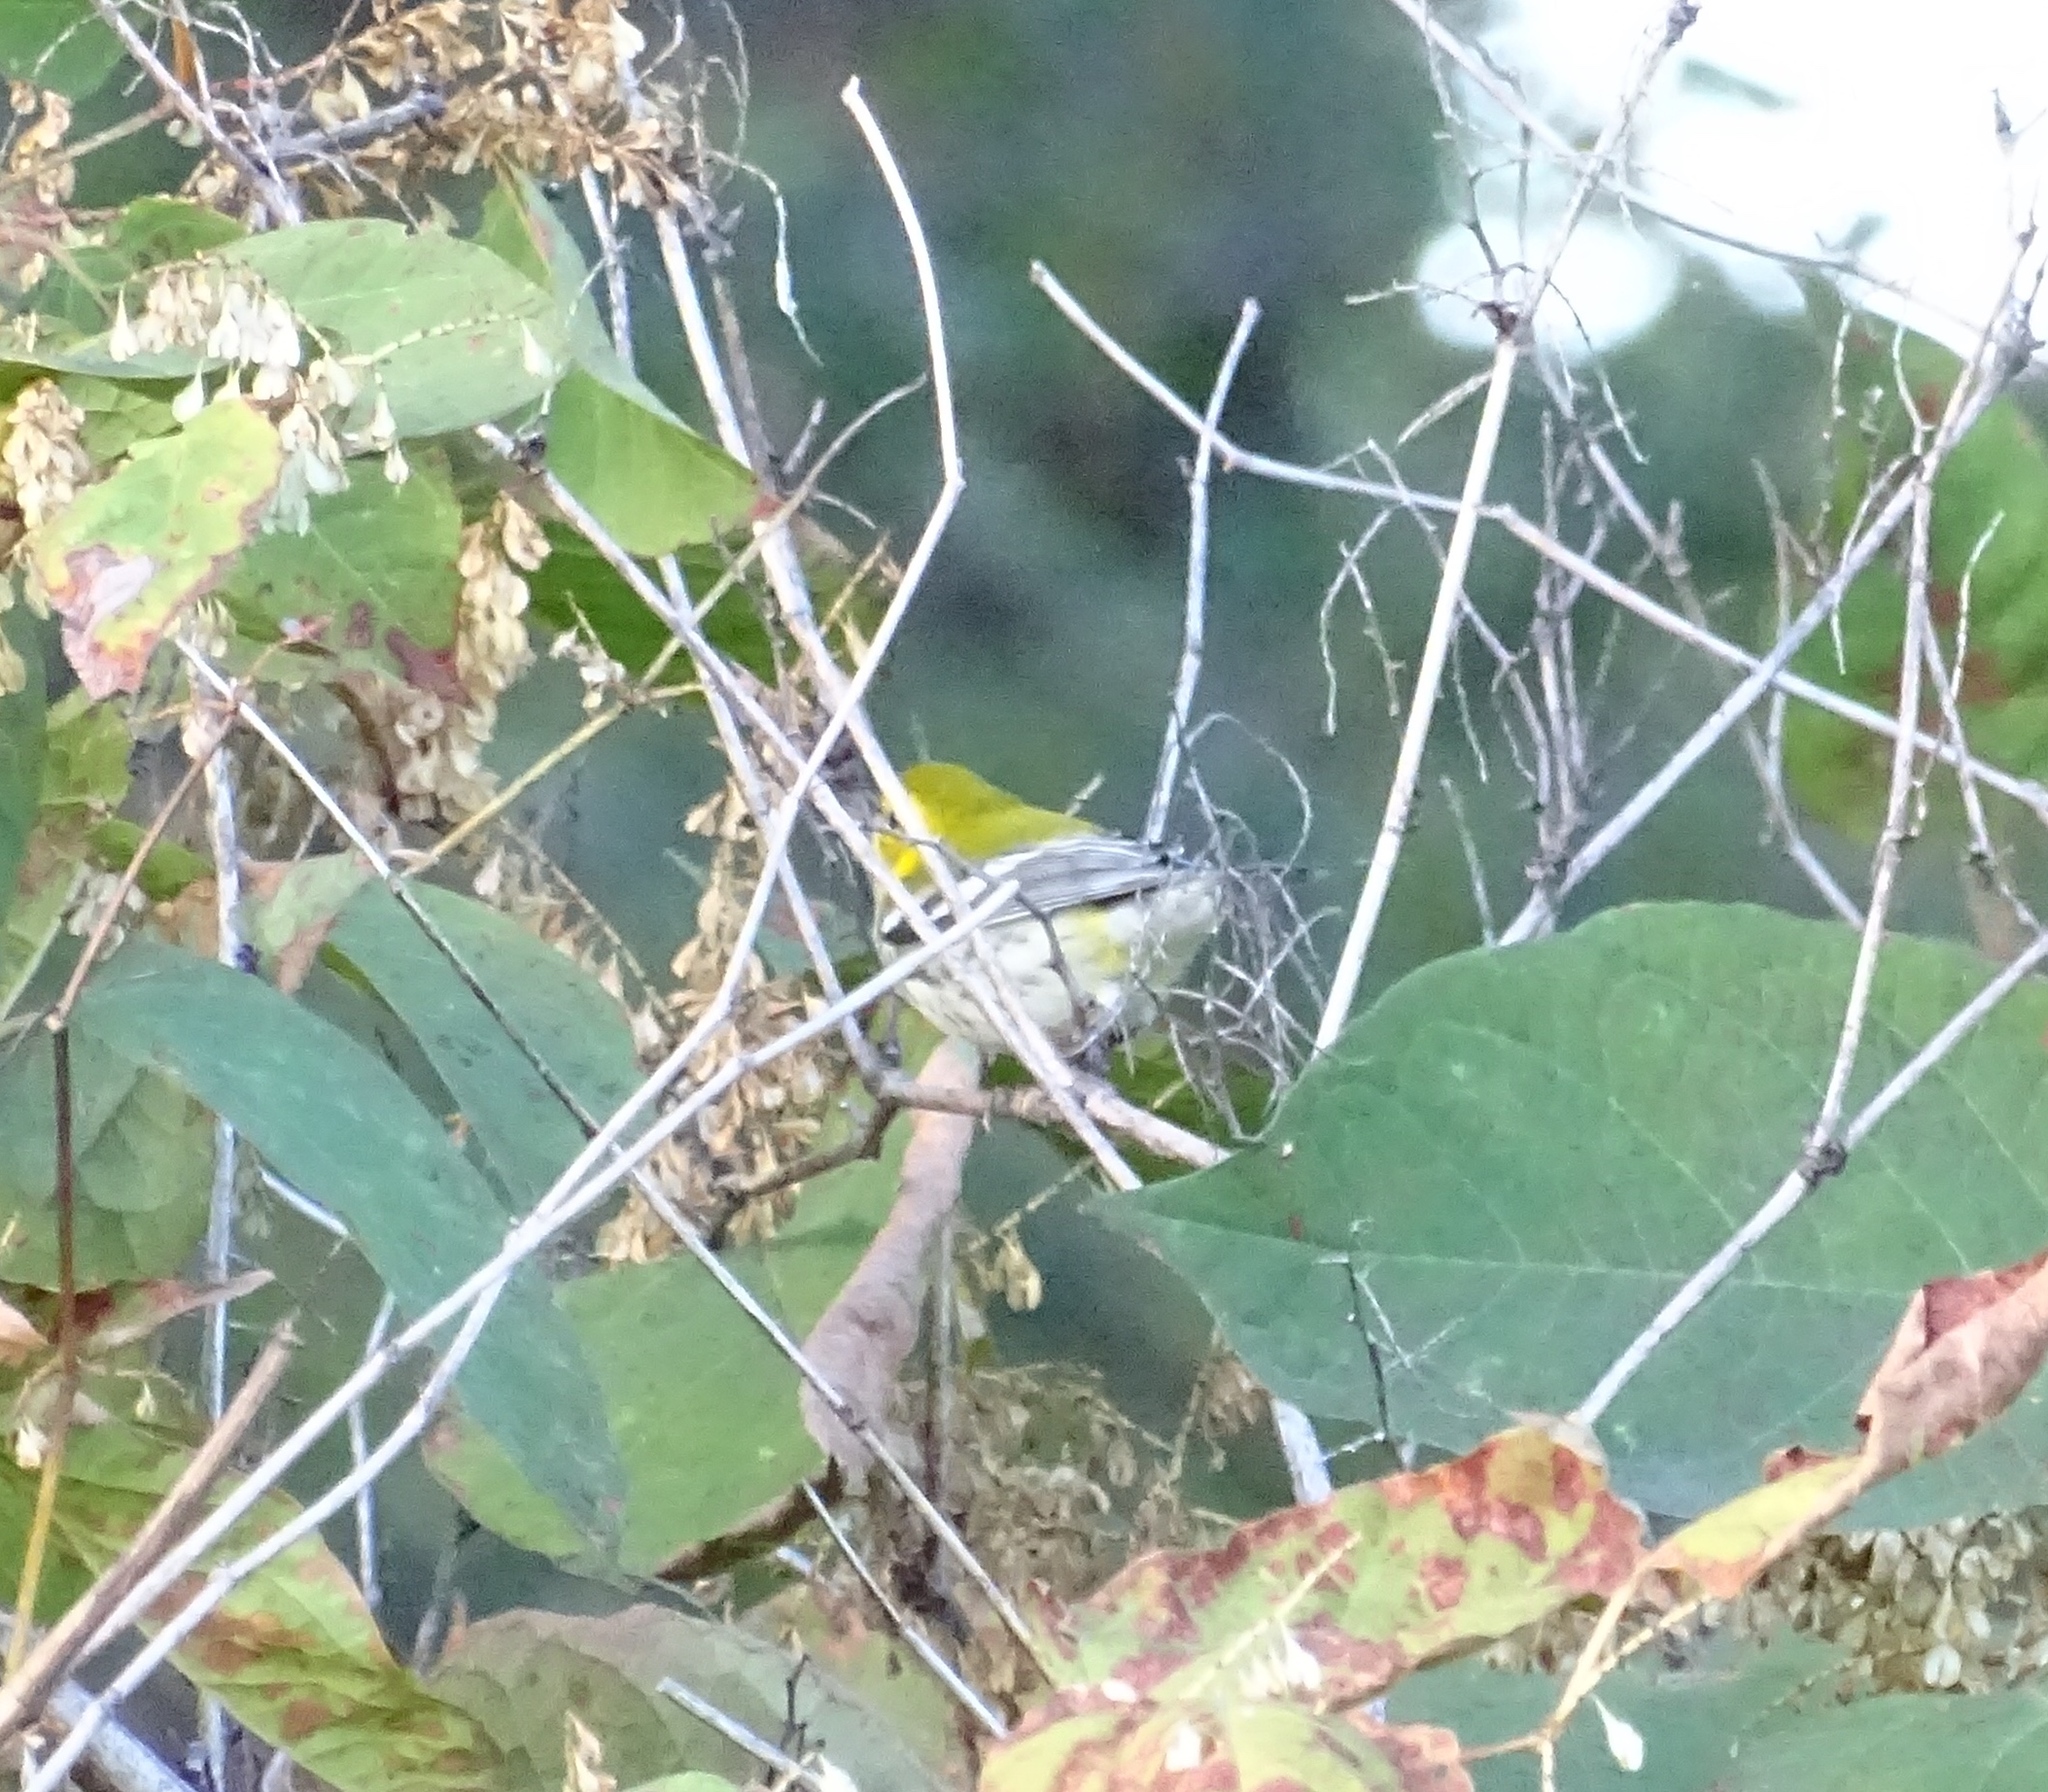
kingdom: Animalia
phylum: Chordata
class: Aves
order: Passeriformes
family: Parulidae
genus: Setophaga
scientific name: Setophaga virens
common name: Black-throated green warbler
